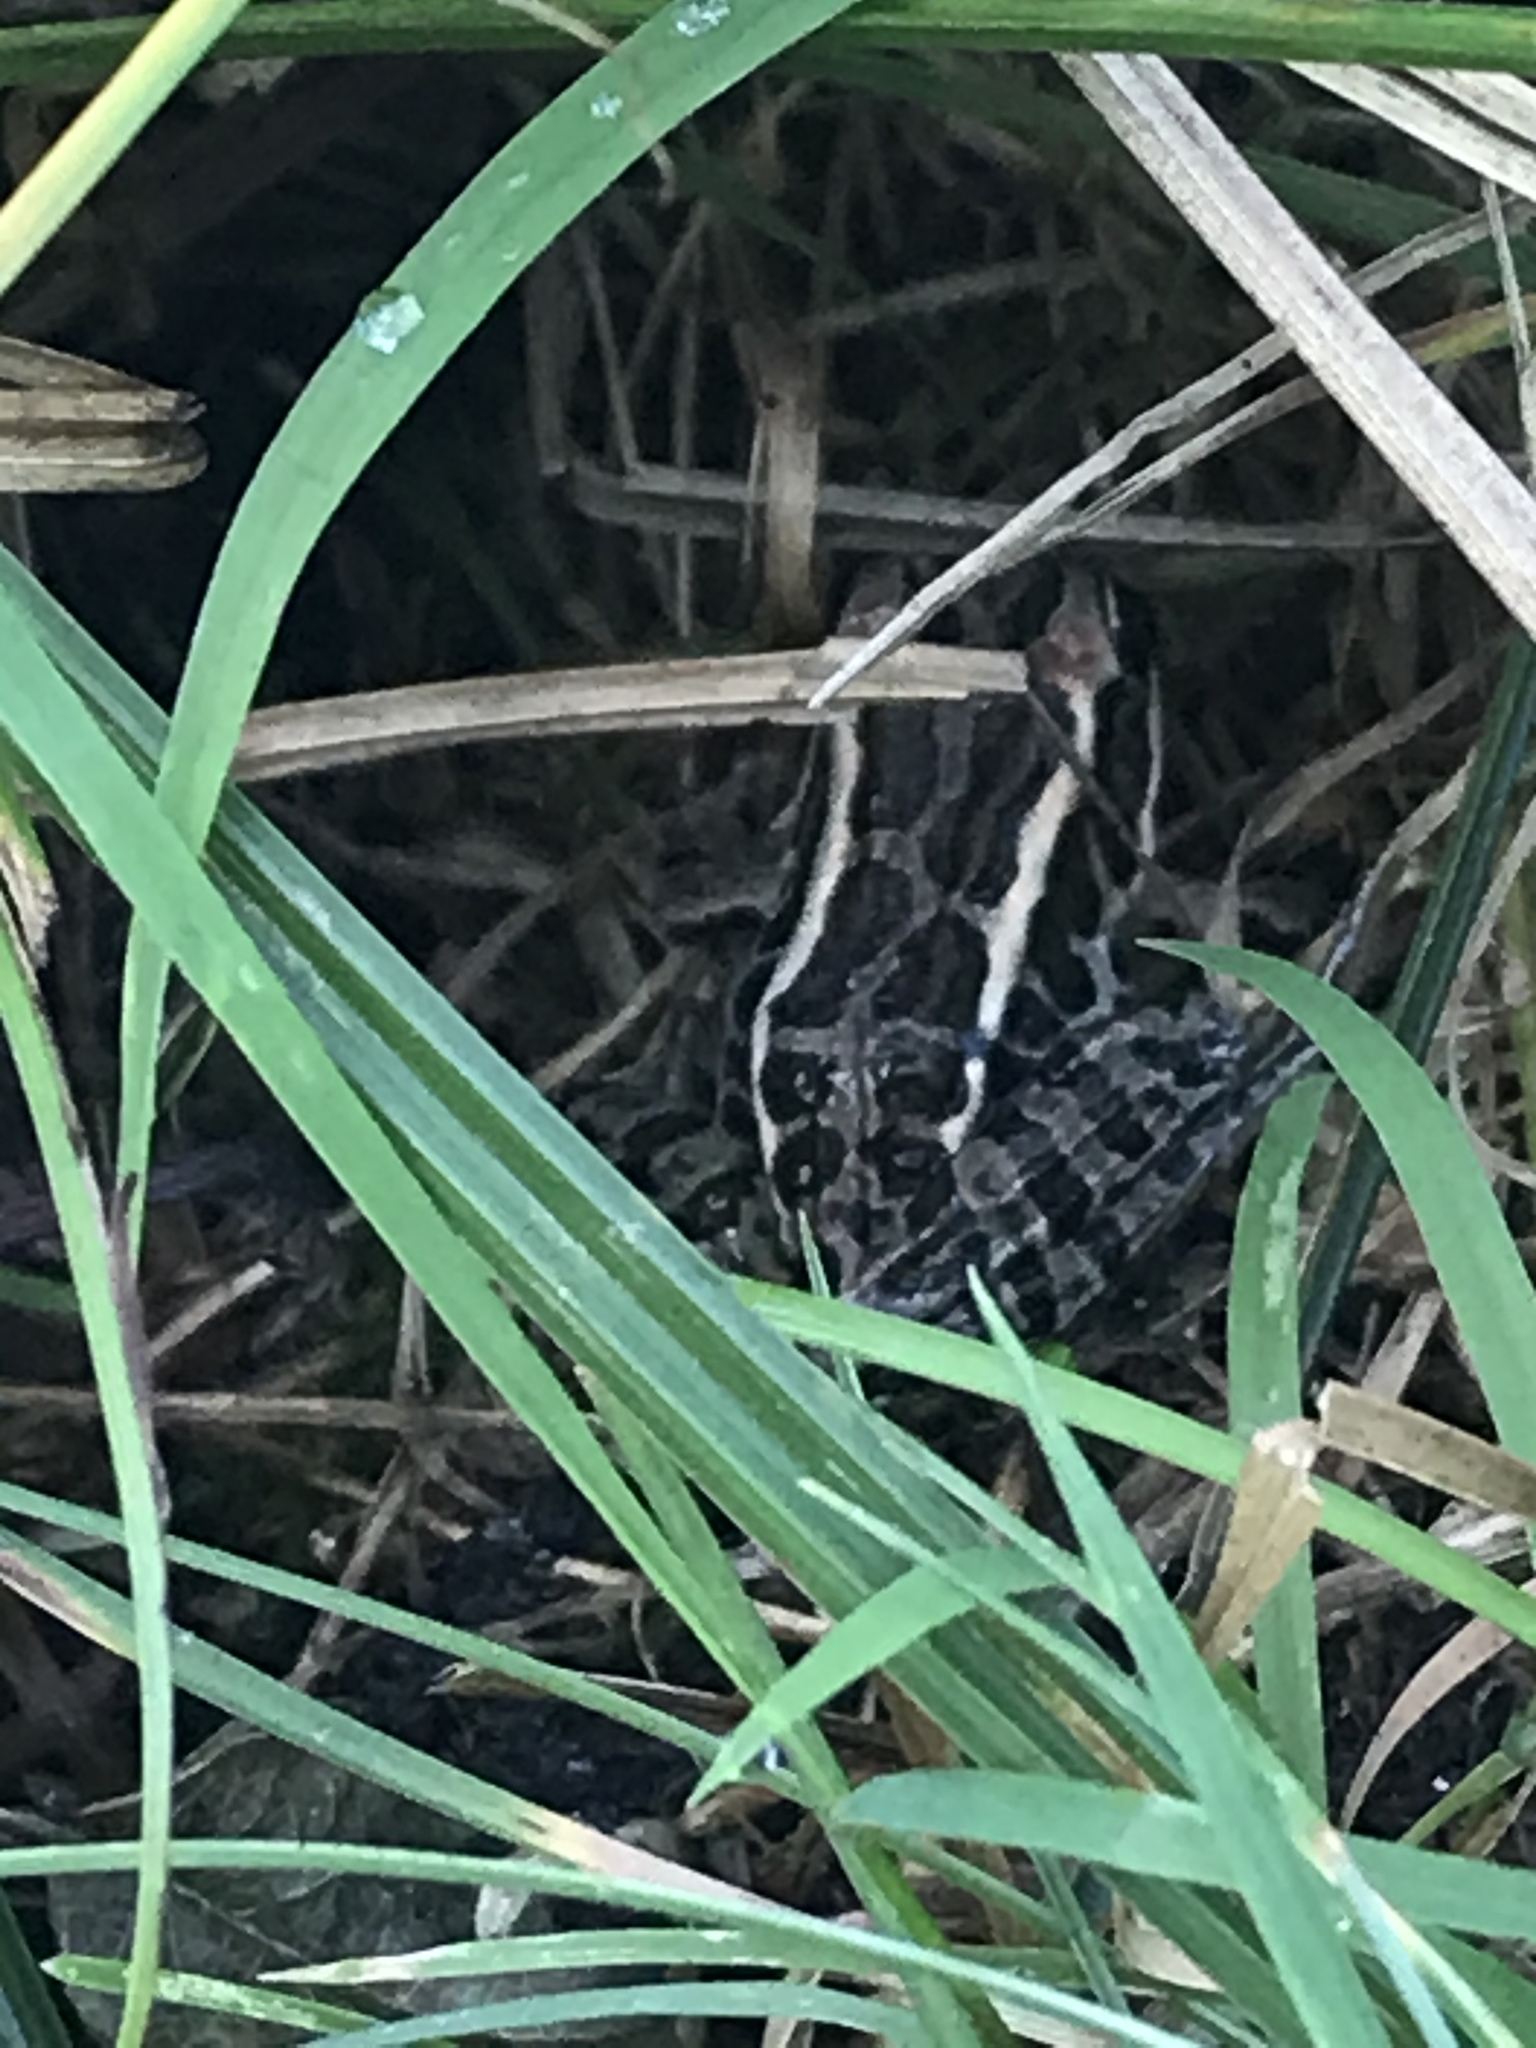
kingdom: Animalia
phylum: Chordata
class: Amphibia
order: Anura
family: Ranidae
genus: Lithobates
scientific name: Lithobates palustris
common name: Pickerel frog
